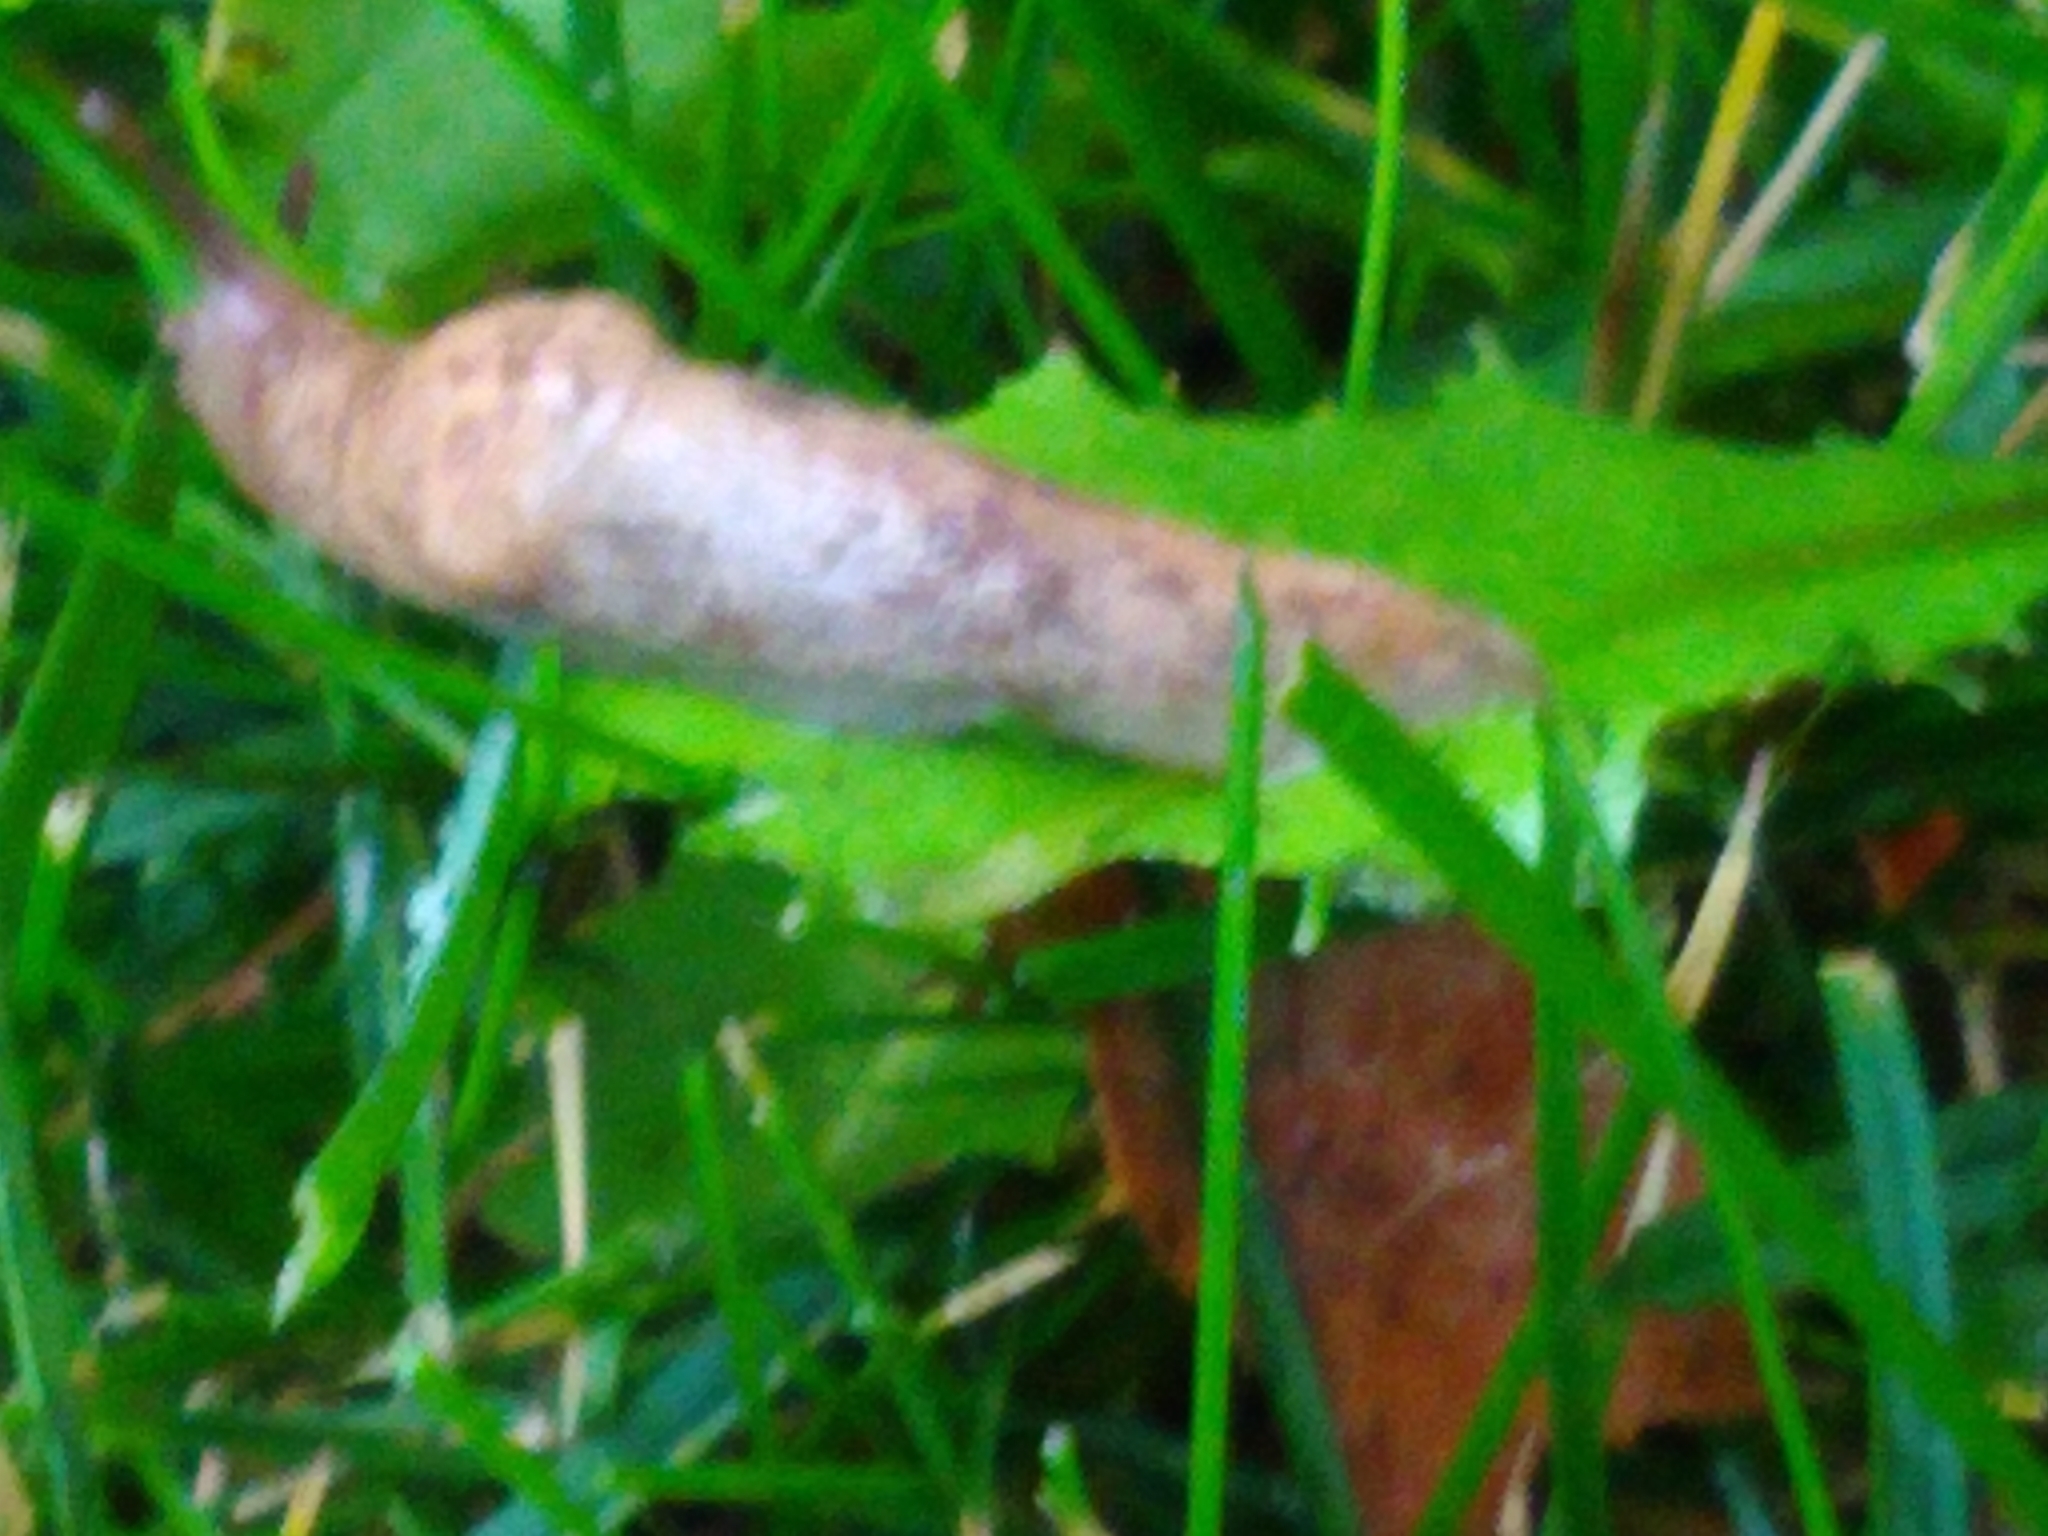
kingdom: Animalia
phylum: Mollusca
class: Gastropoda
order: Stylommatophora
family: Agriolimacidae
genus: Deroceras
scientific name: Deroceras reticulatum
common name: Gray field slug
